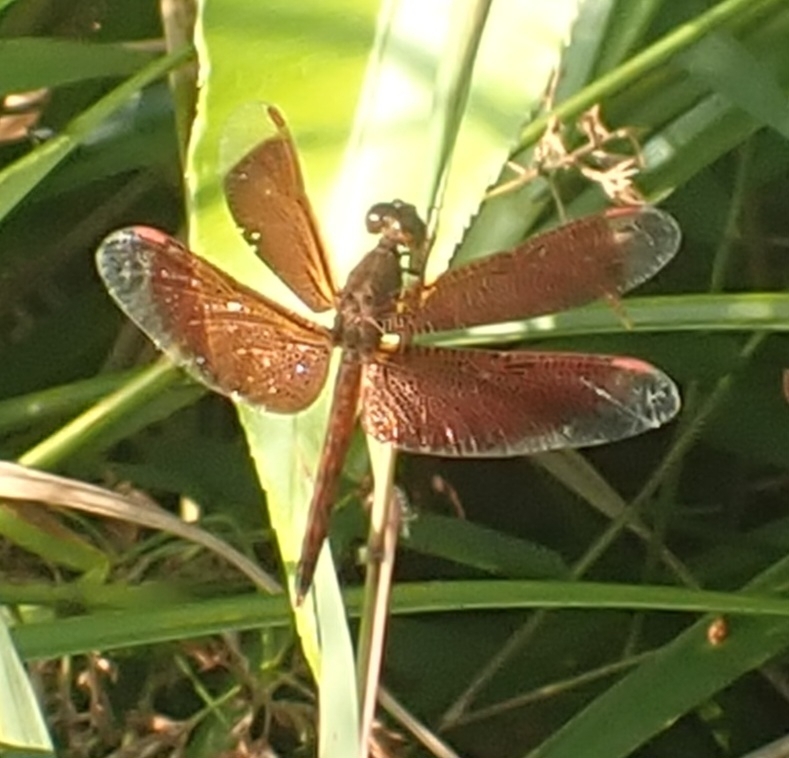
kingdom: Animalia
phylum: Arthropoda
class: Insecta
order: Odonata
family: Libellulidae
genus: Neurothemis
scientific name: Neurothemis fluctuans
